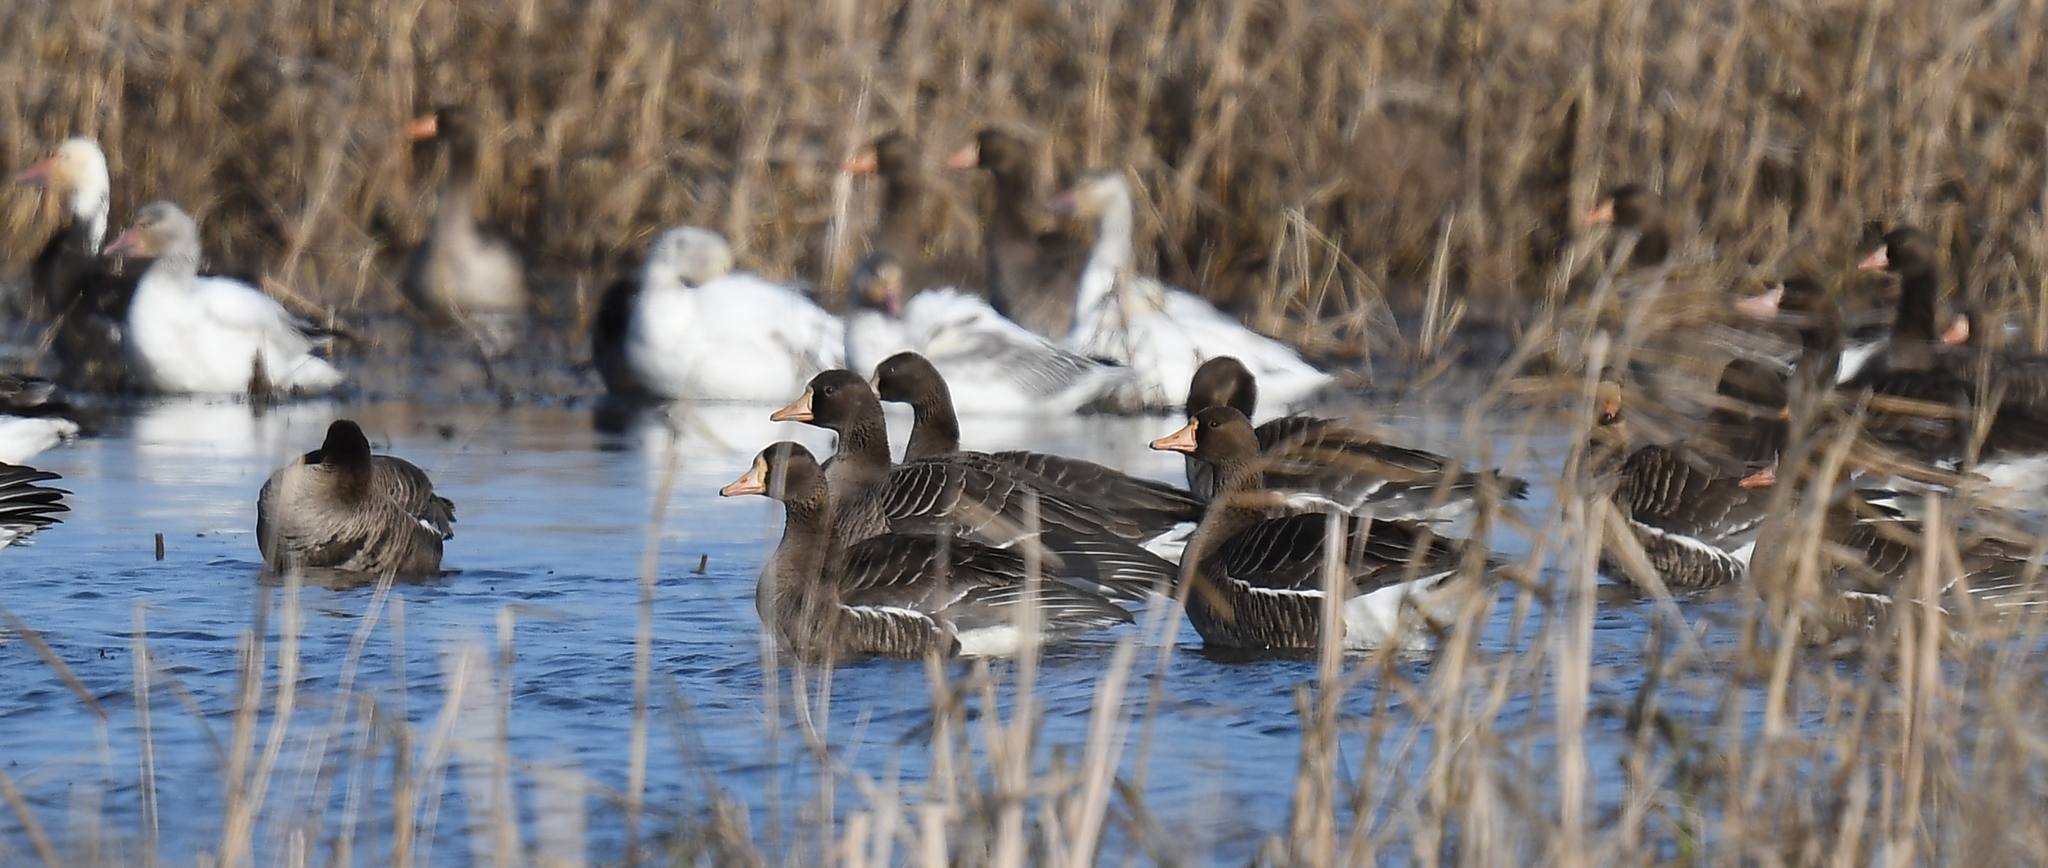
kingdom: Animalia
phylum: Chordata
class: Aves
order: Anseriformes
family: Anatidae
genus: Anser
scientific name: Anser albifrons
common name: Greater white-fronted goose
